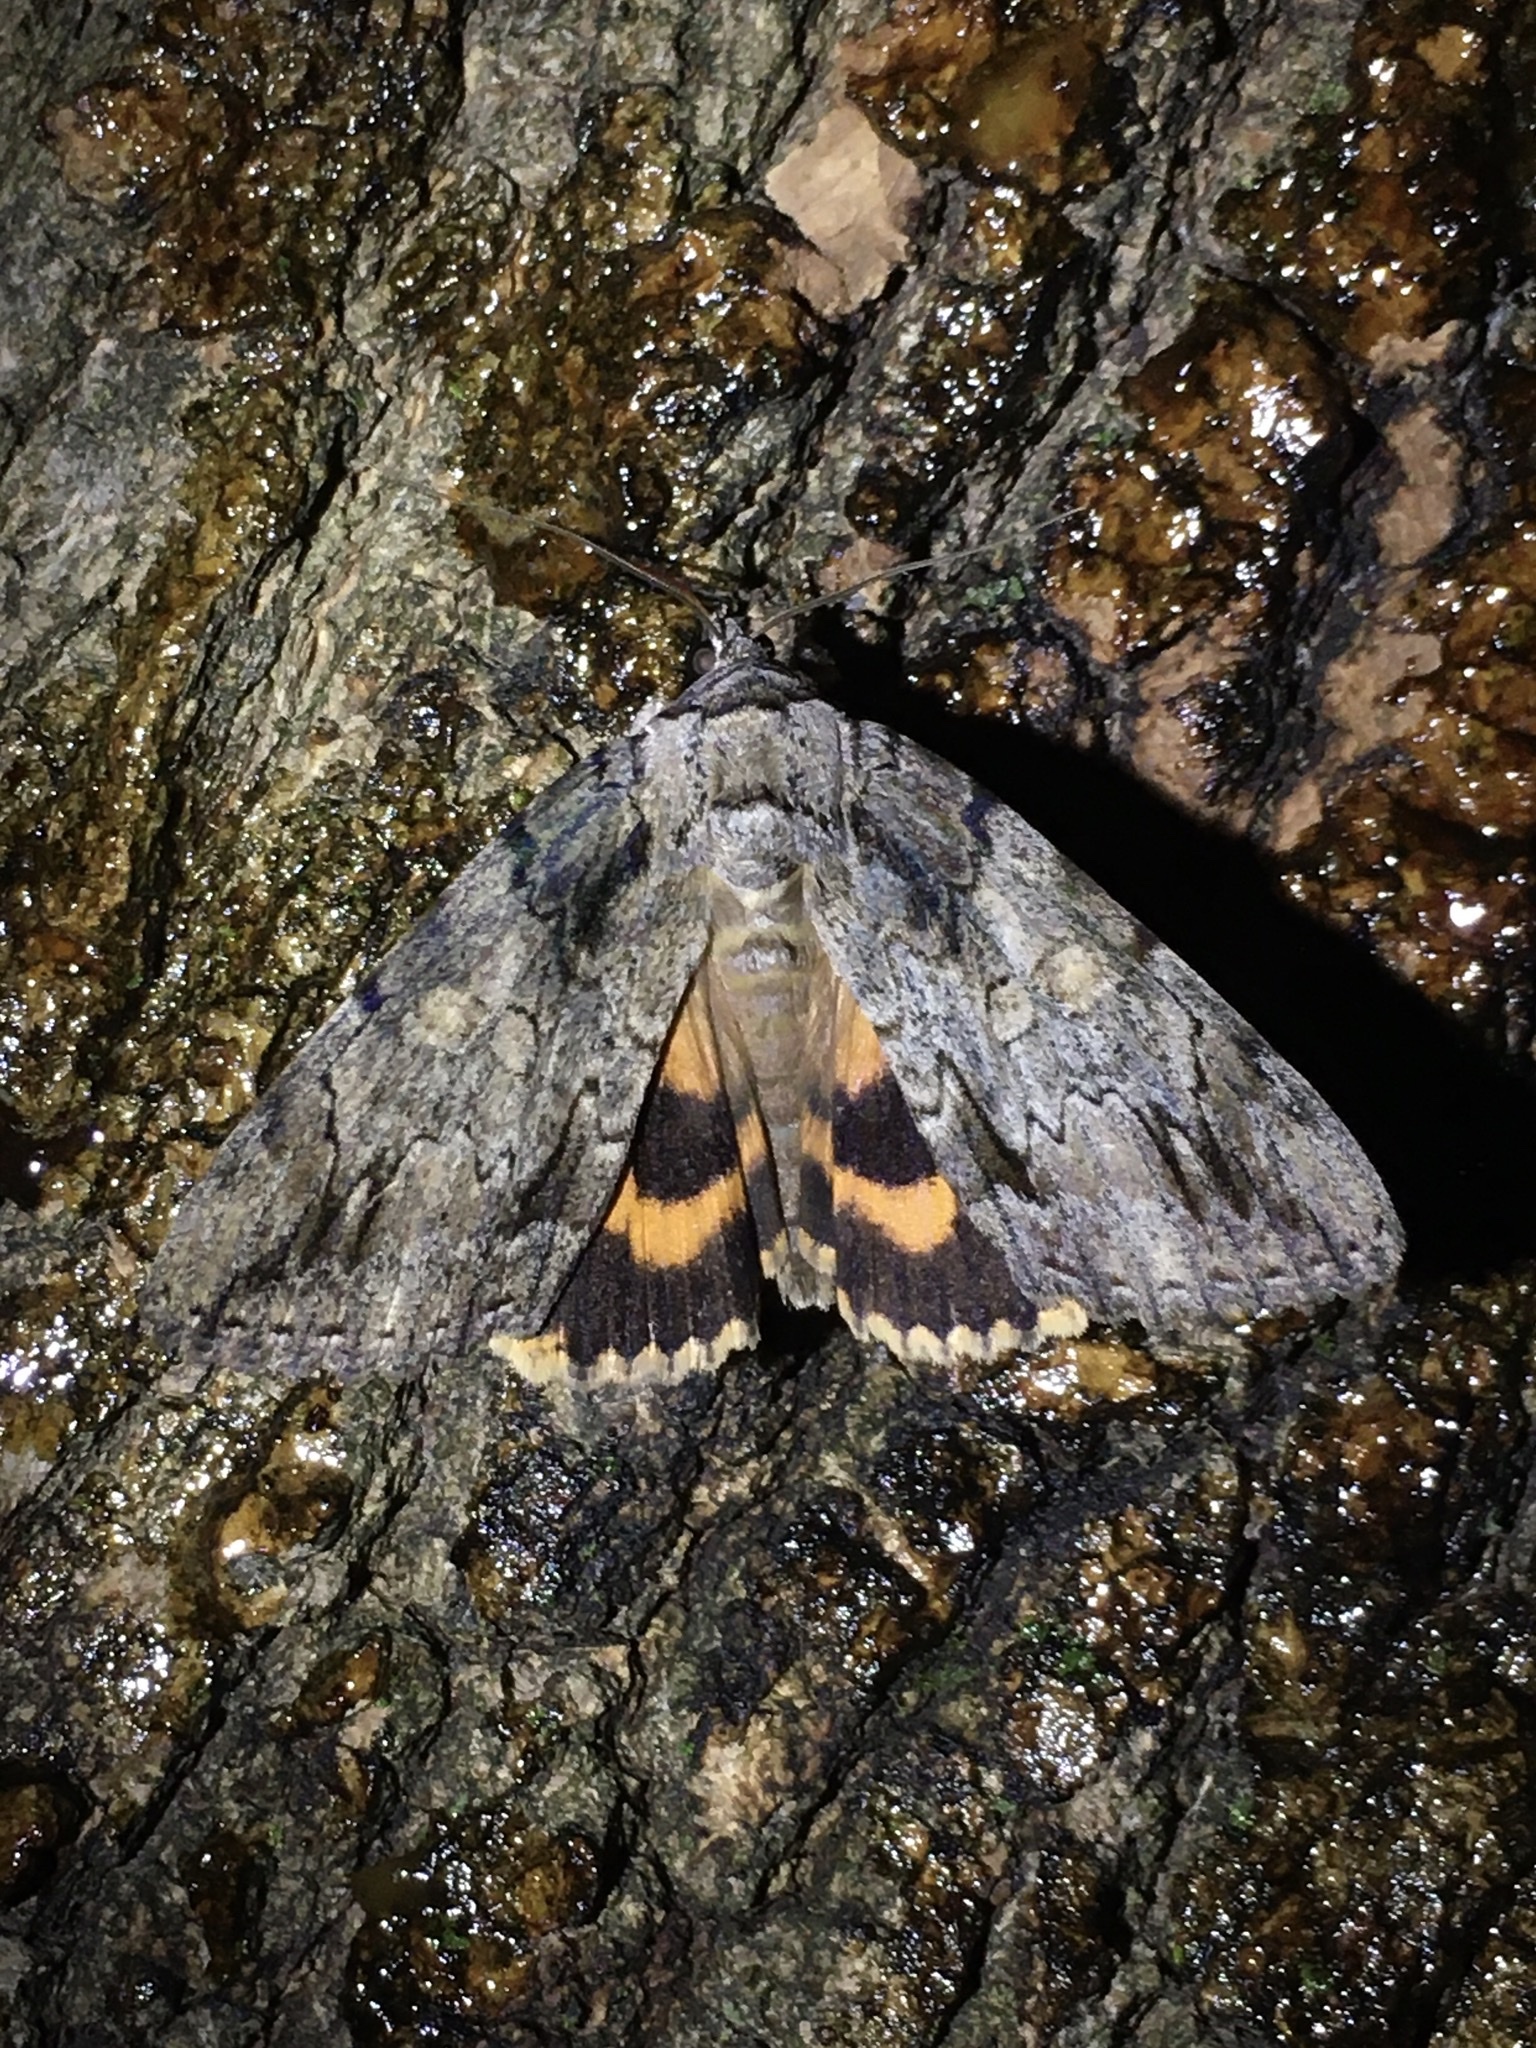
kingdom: Animalia
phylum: Arthropoda
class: Insecta
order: Lepidoptera
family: Erebidae
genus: Catocala
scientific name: Catocala neogama
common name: Bride underwing
